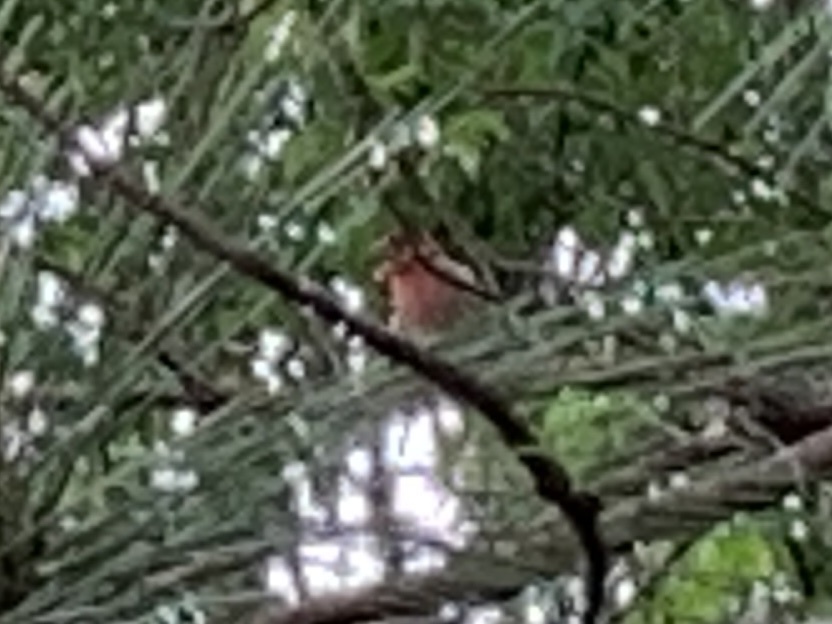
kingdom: Animalia
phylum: Chordata
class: Aves
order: Passeriformes
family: Fringillidae
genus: Haemorhous
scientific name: Haemorhous mexicanus
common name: House finch
